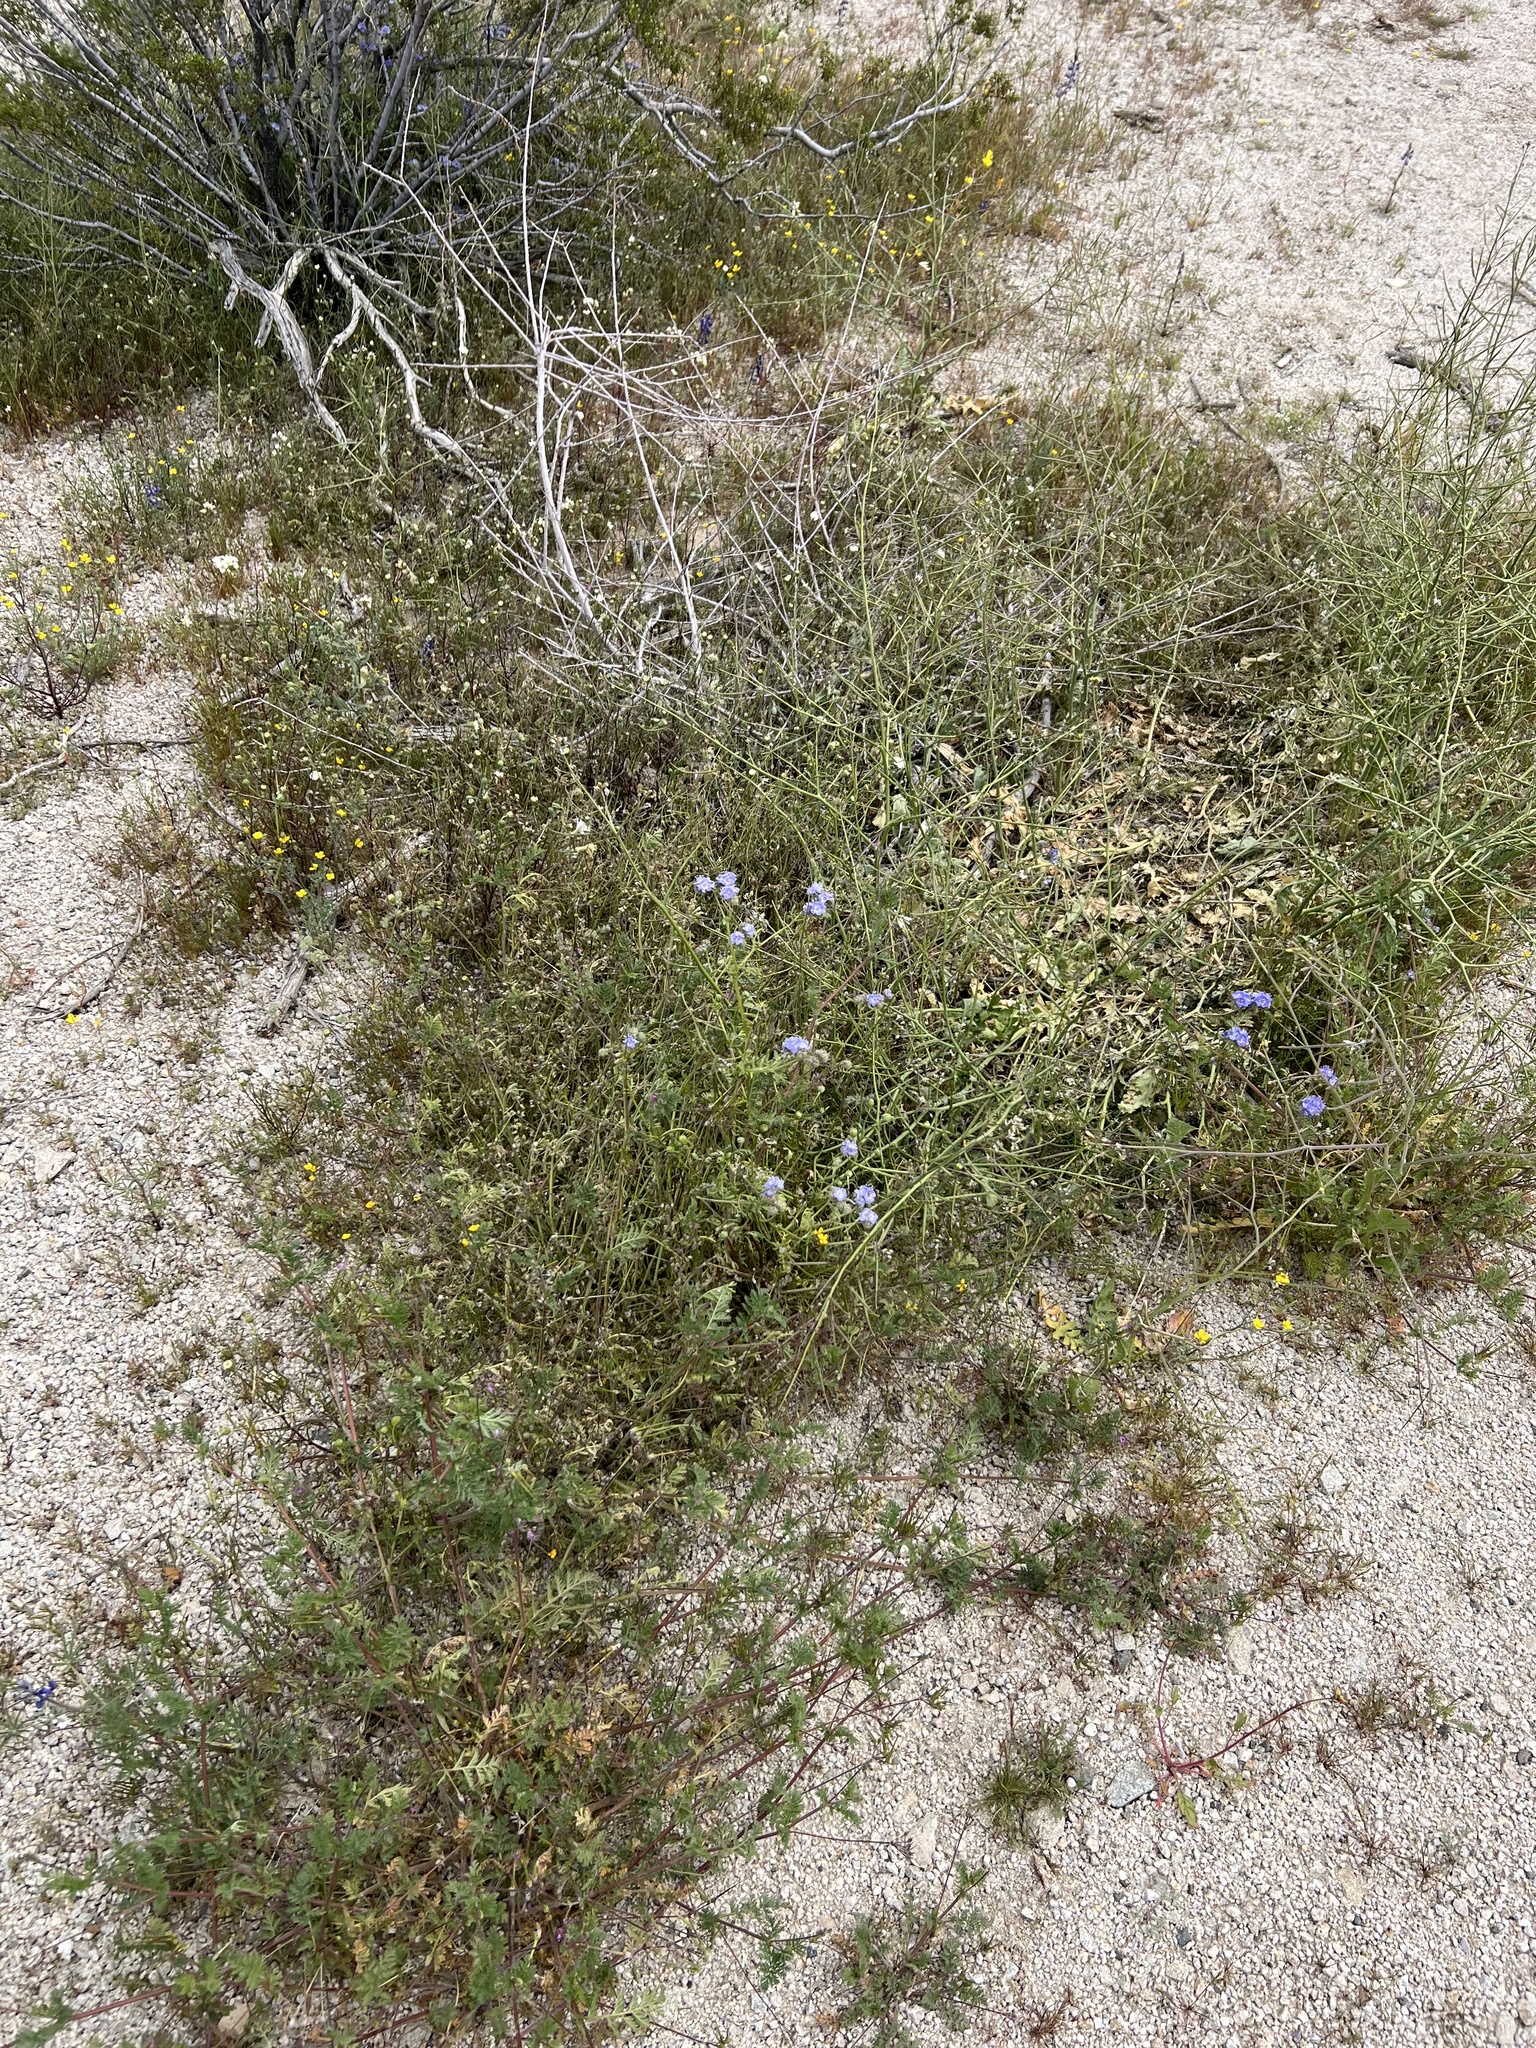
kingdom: Plantae
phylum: Tracheophyta
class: Magnoliopsida
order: Boraginales
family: Hydrophyllaceae
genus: Phacelia
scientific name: Phacelia distans
